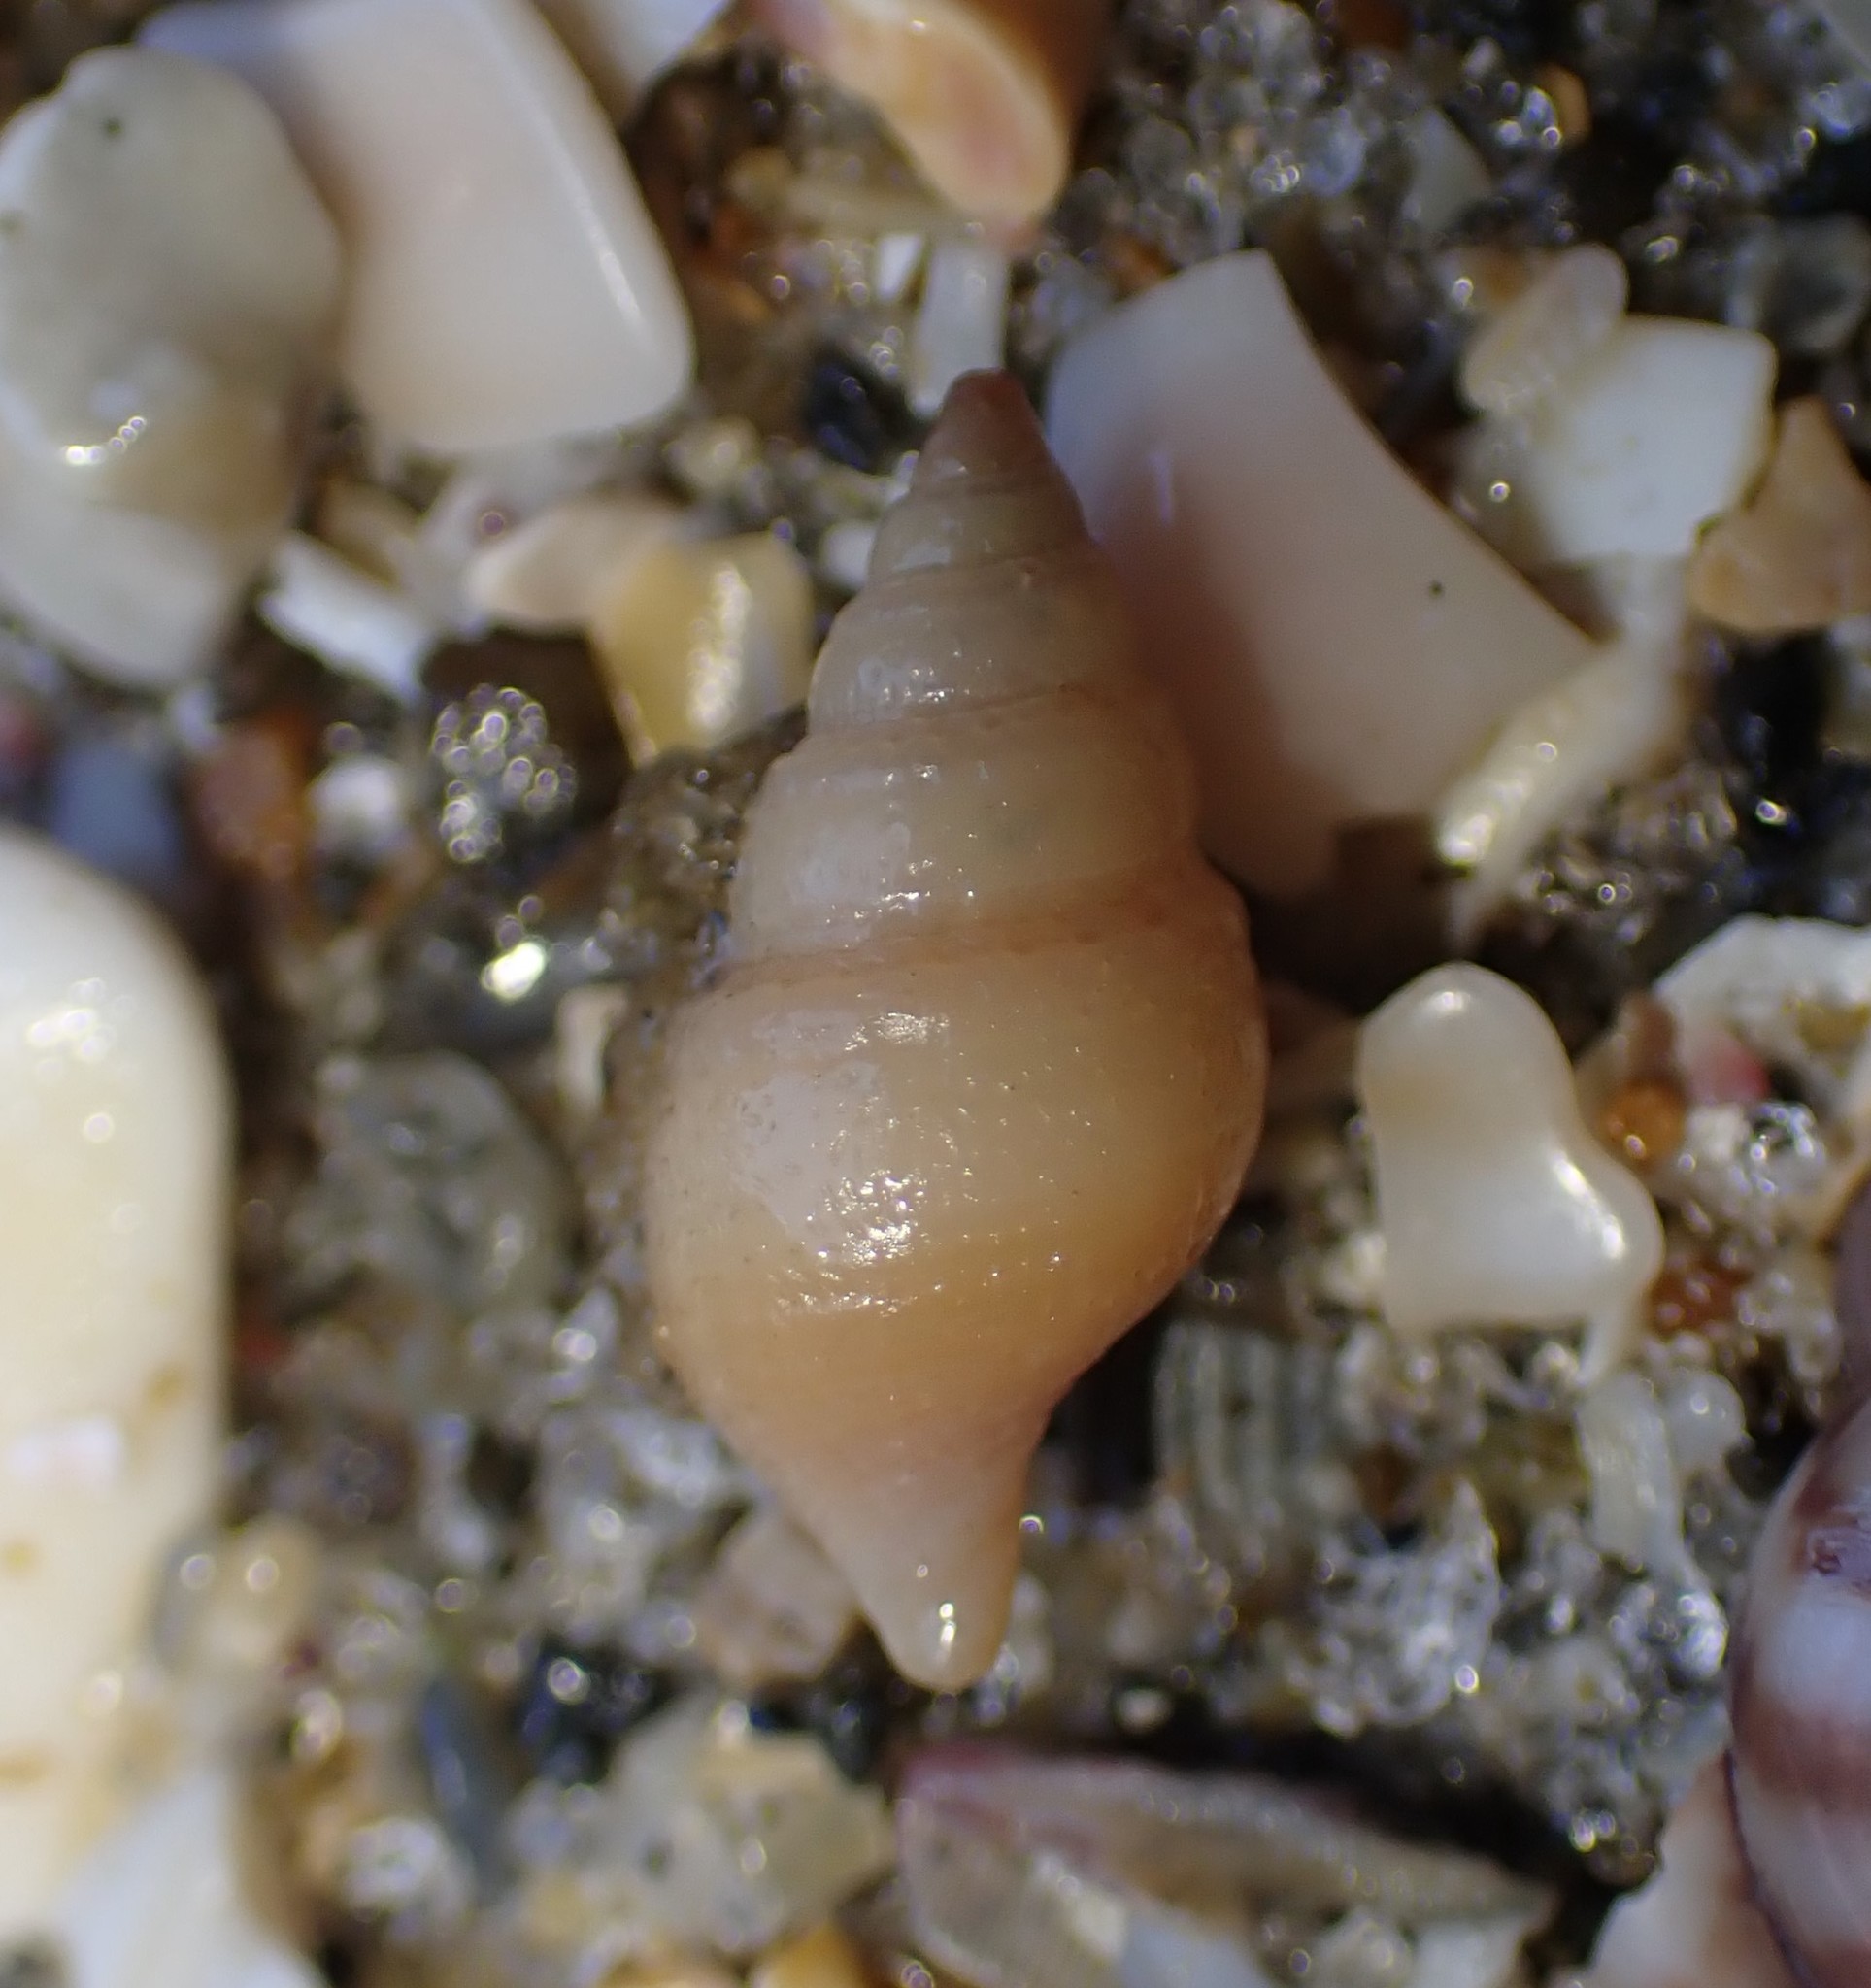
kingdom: Animalia
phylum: Mollusca
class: Gastropoda
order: Neogastropoda
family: Borsoniidae
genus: Phenatoma
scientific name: Phenatoma zealandicum
